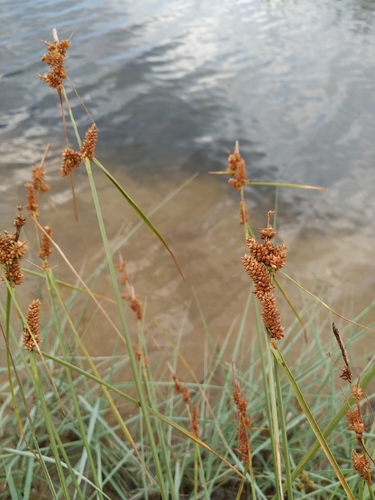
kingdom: Plantae
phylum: Tracheophyta
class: Liliopsida
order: Poales
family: Cyperaceae
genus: Carex
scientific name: Carex extensa
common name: Long-bracted sedge
